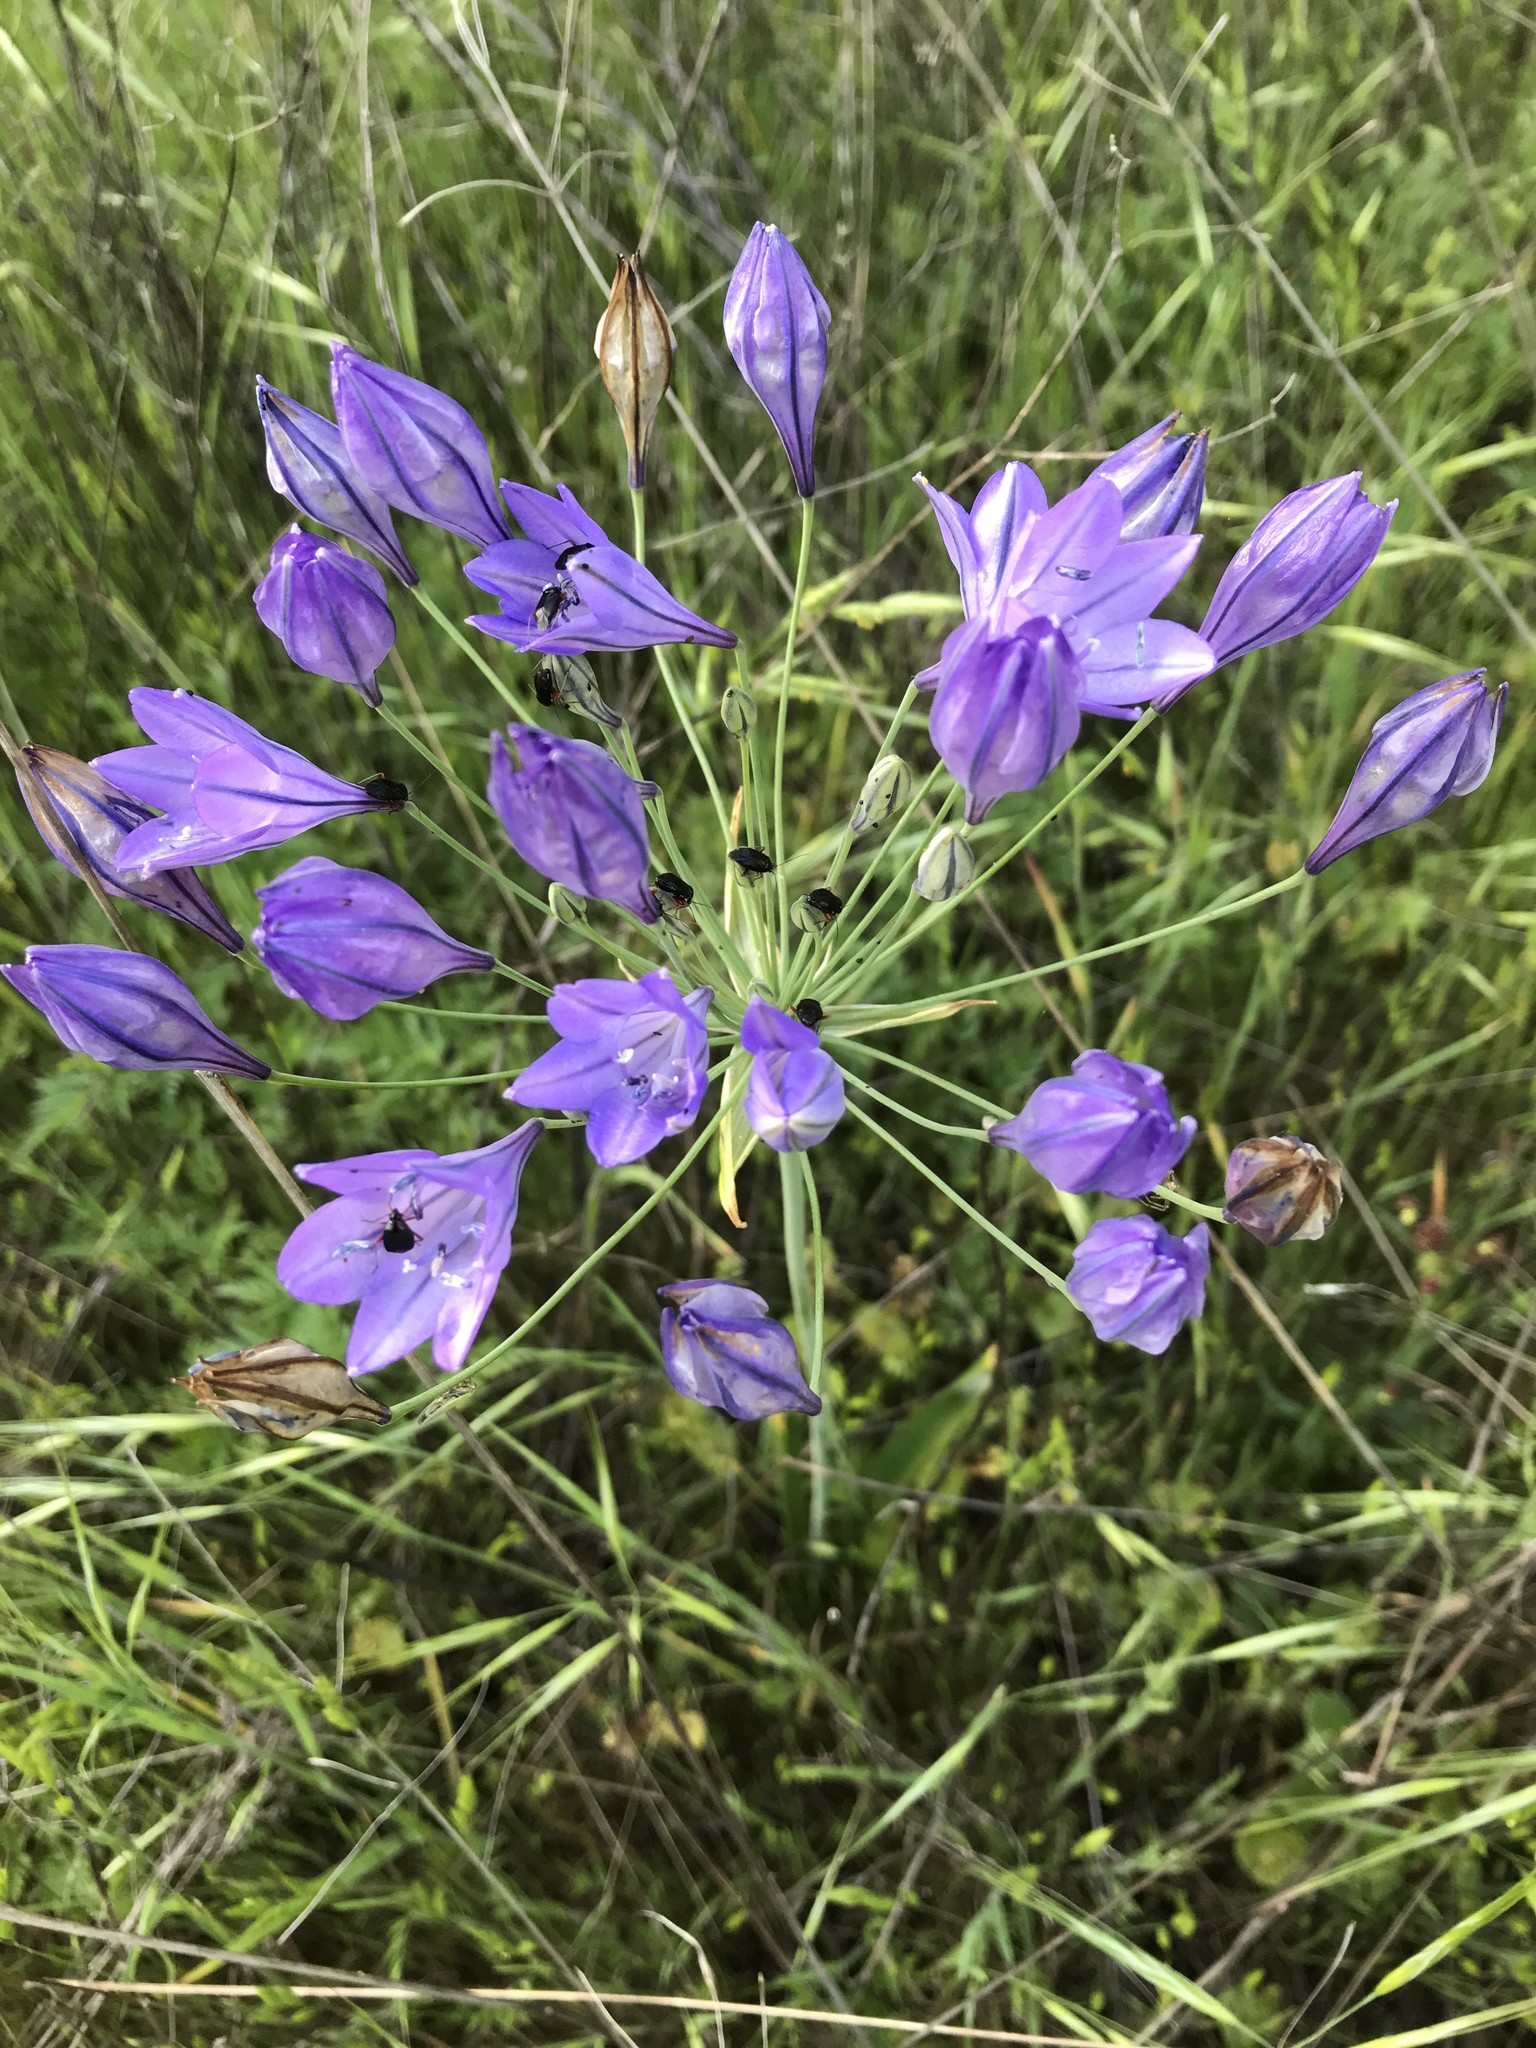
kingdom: Plantae
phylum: Tracheophyta
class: Liliopsida
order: Asparagales
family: Asparagaceae
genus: Triteleia
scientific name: Triteleia laxa
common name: Triplet-lily
